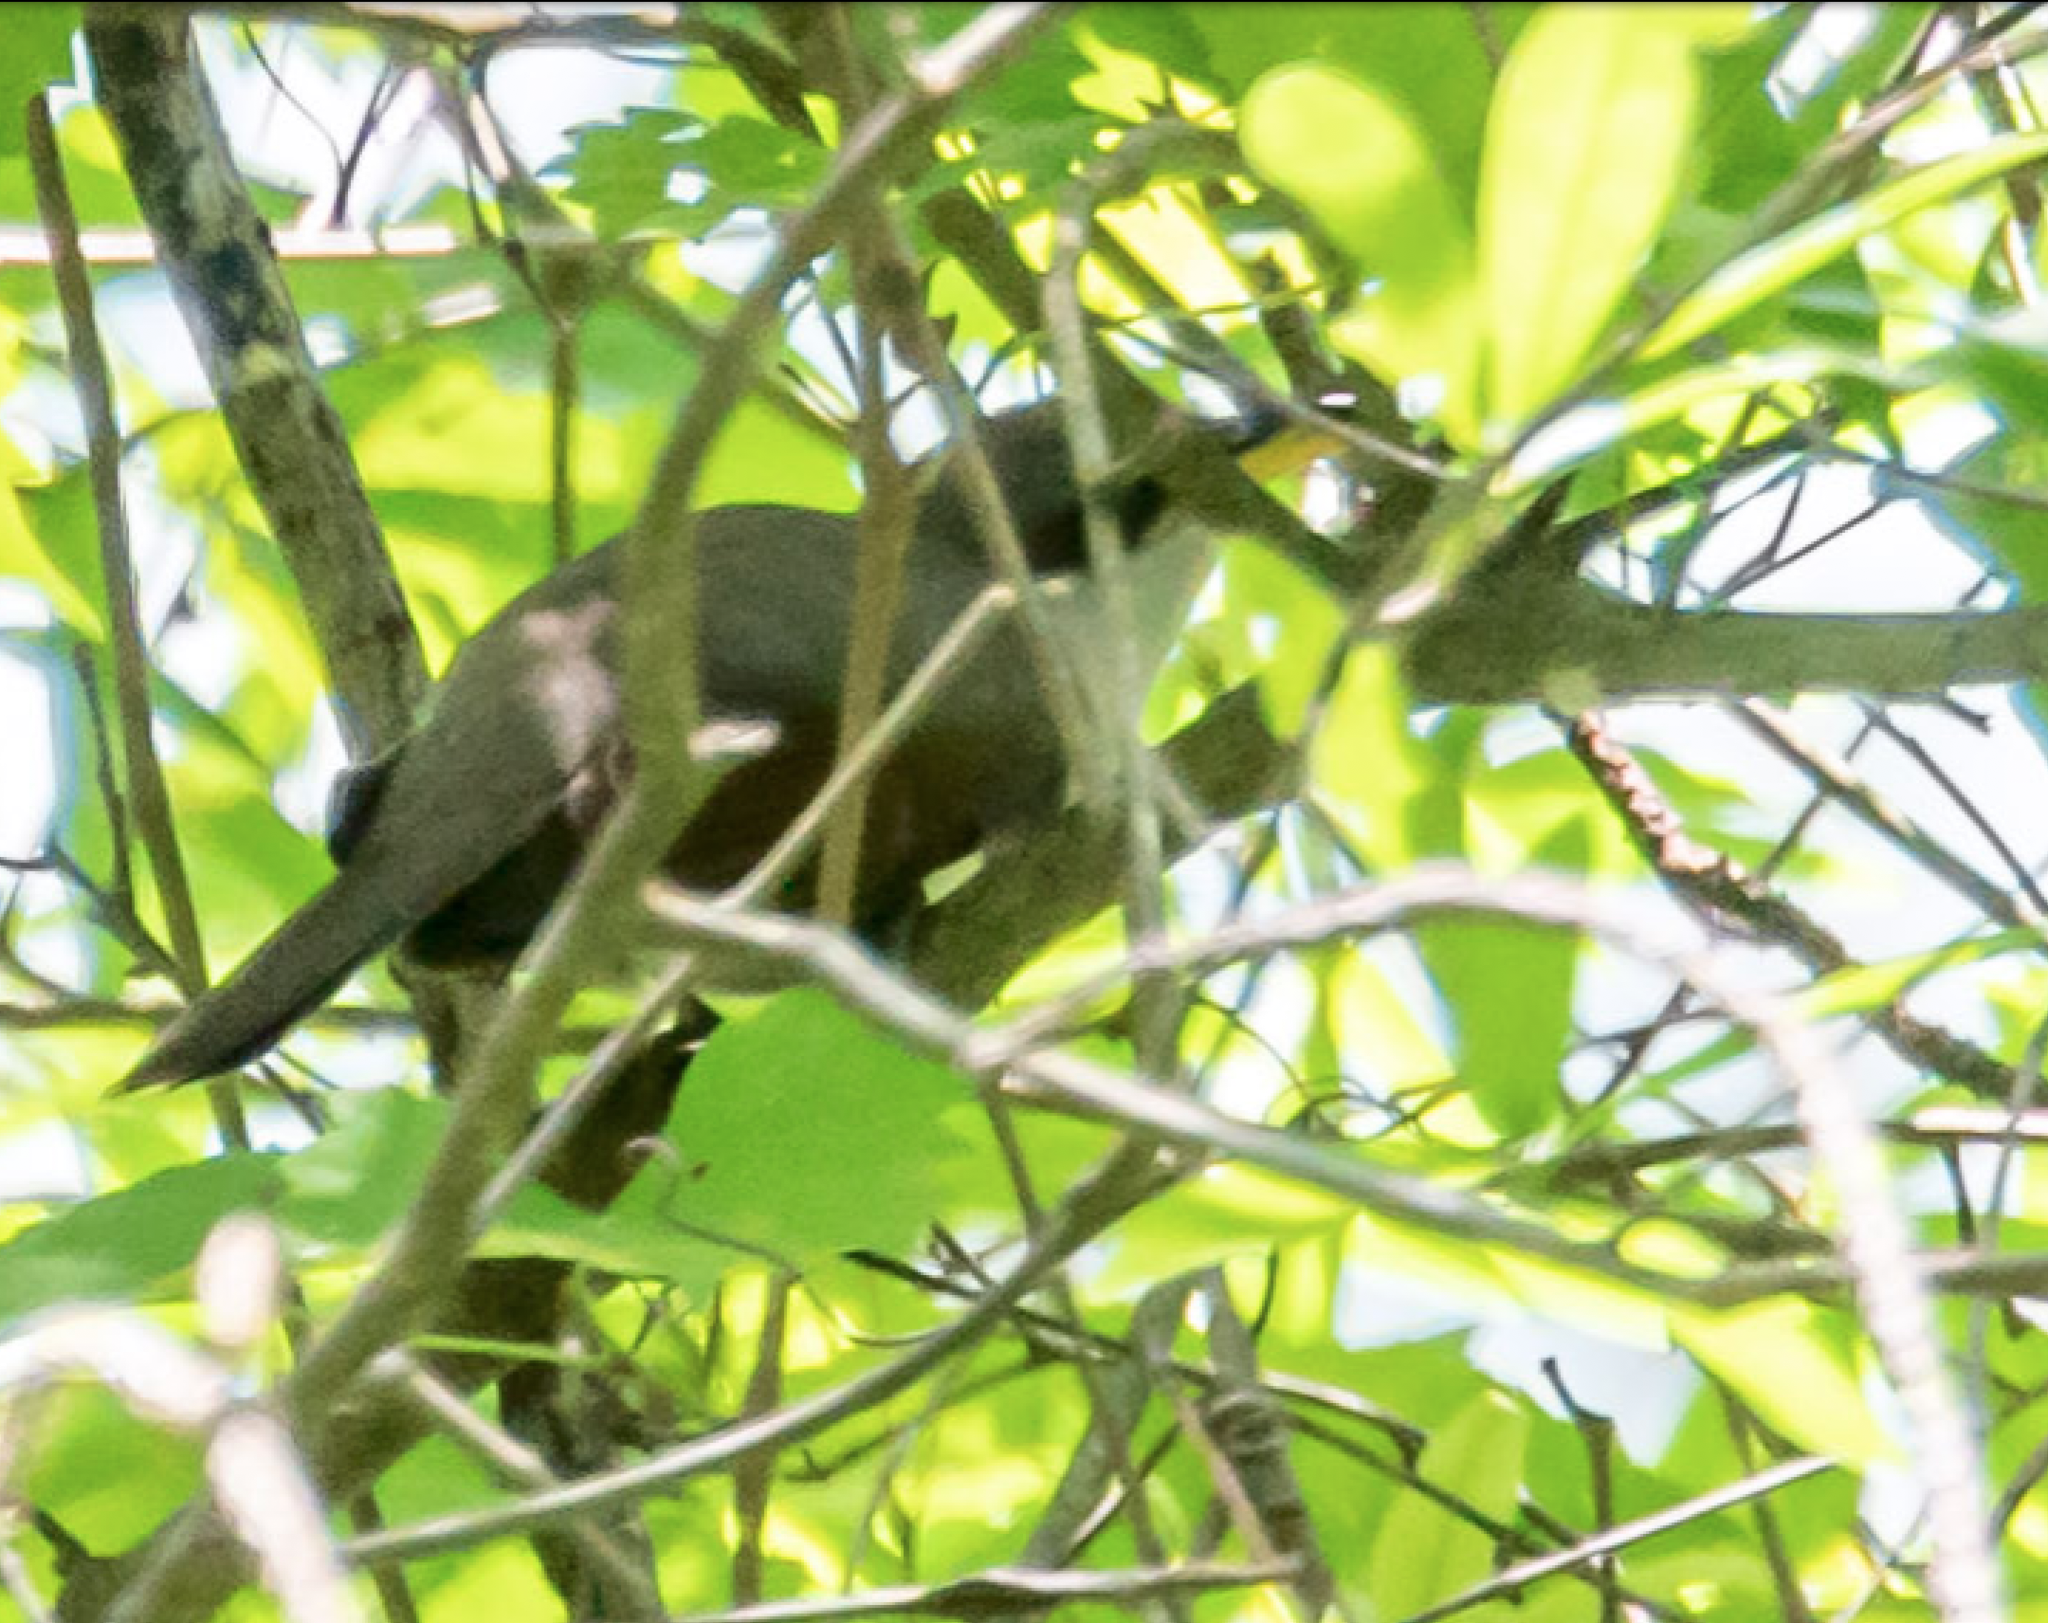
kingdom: Animalia
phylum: Chordata
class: Aves
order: Cuculiformes
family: Cuculidae
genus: Coccyzus
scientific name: Coccyzus americanus
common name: Yellow-billed cuckoo
